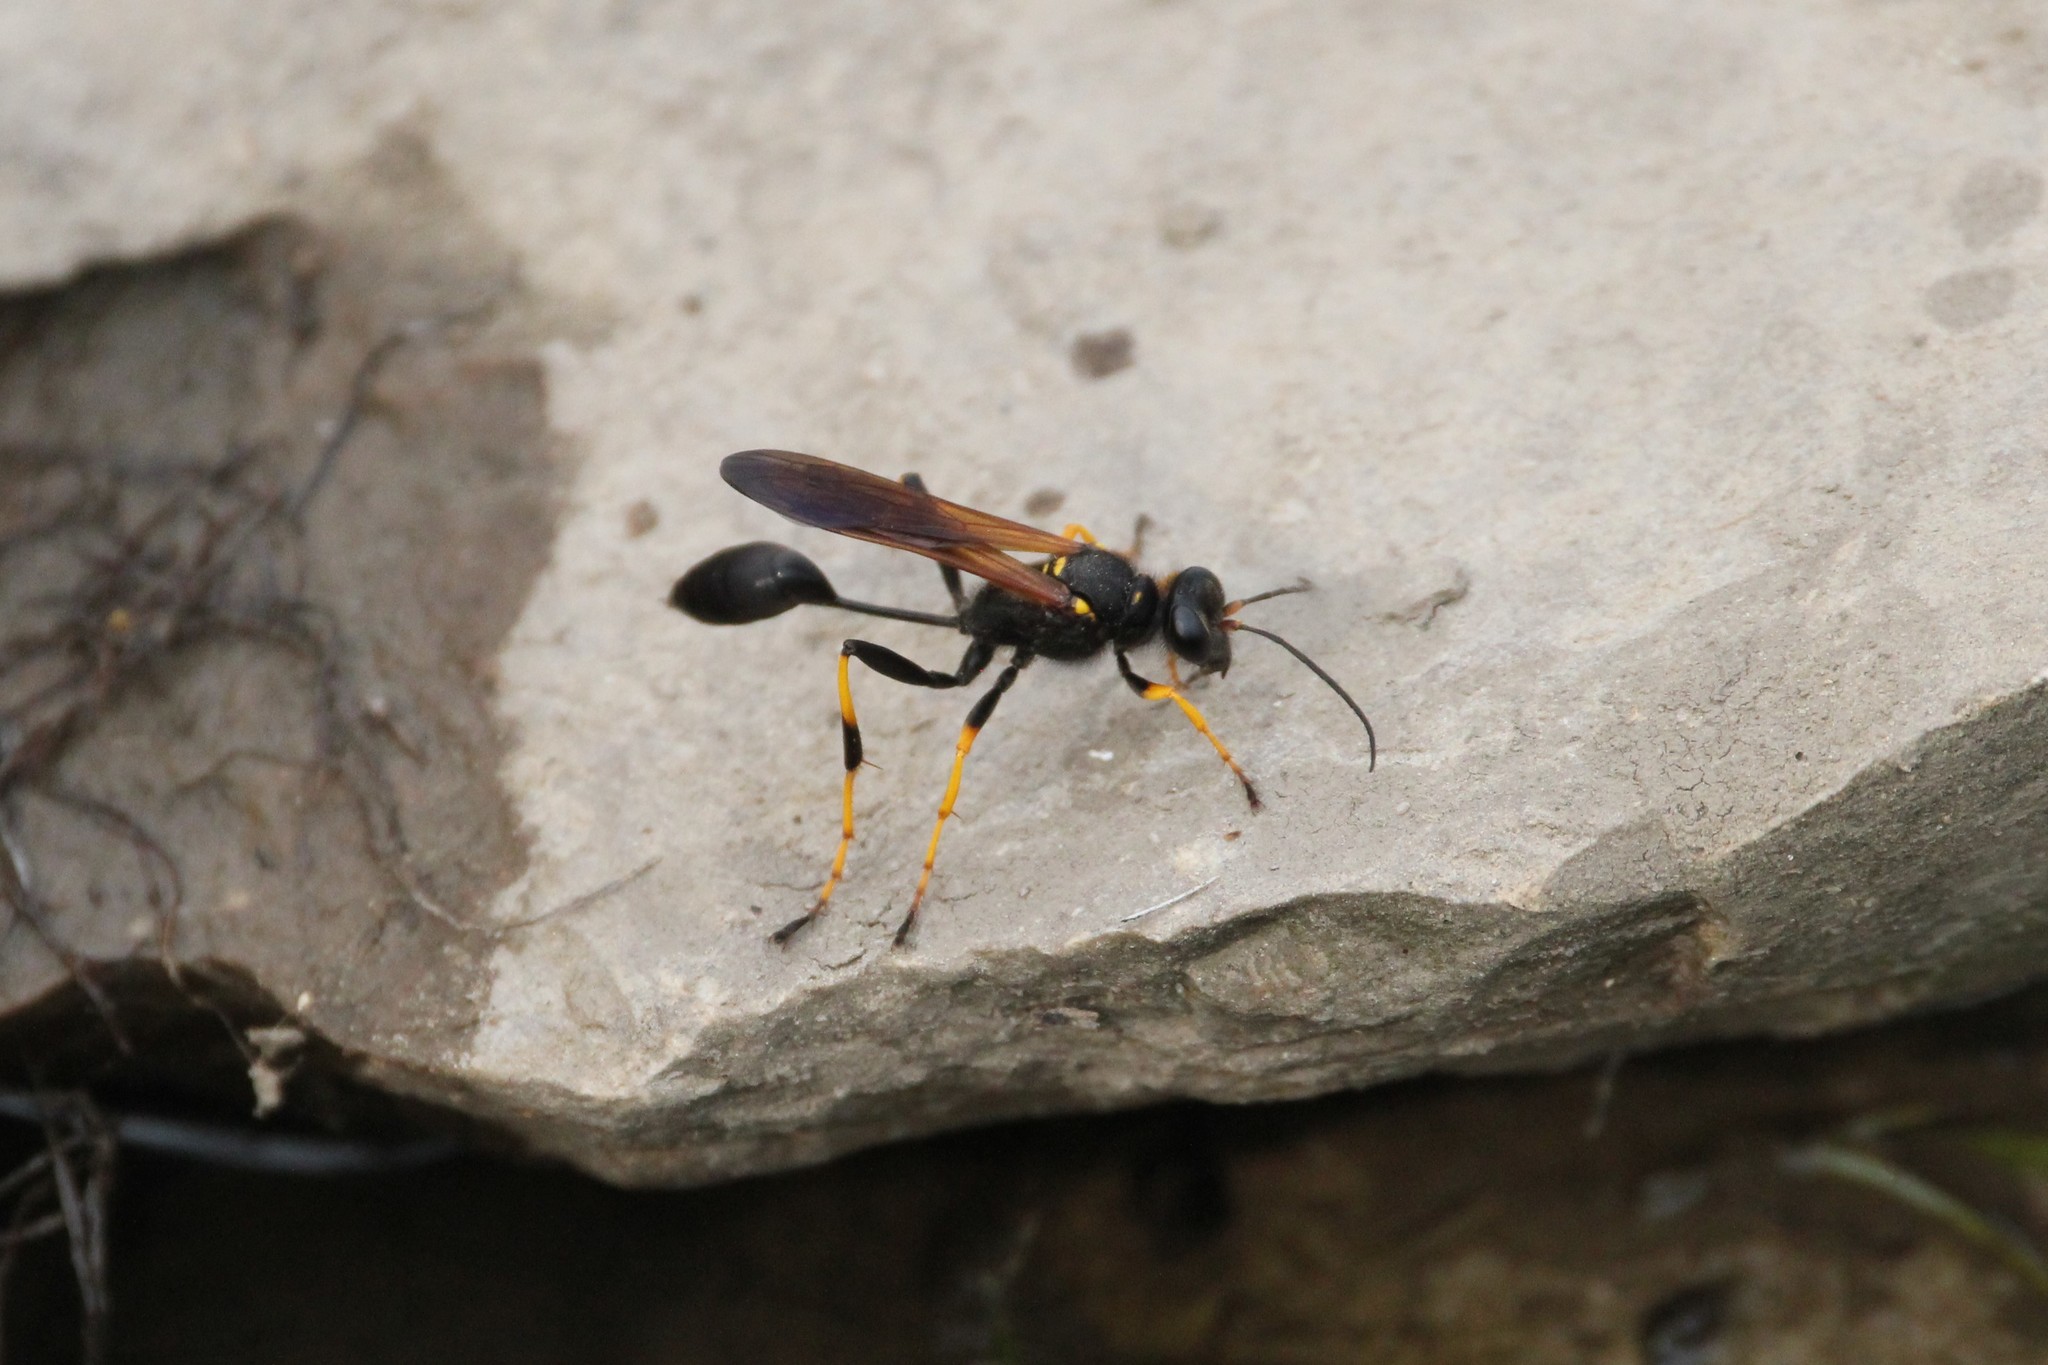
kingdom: Animalia
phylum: Arthropoda
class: Insecta
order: Hymenoptera
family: Sphecidae
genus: Sceliphron
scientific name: Sceliphron caementarium
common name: Mud dauber
